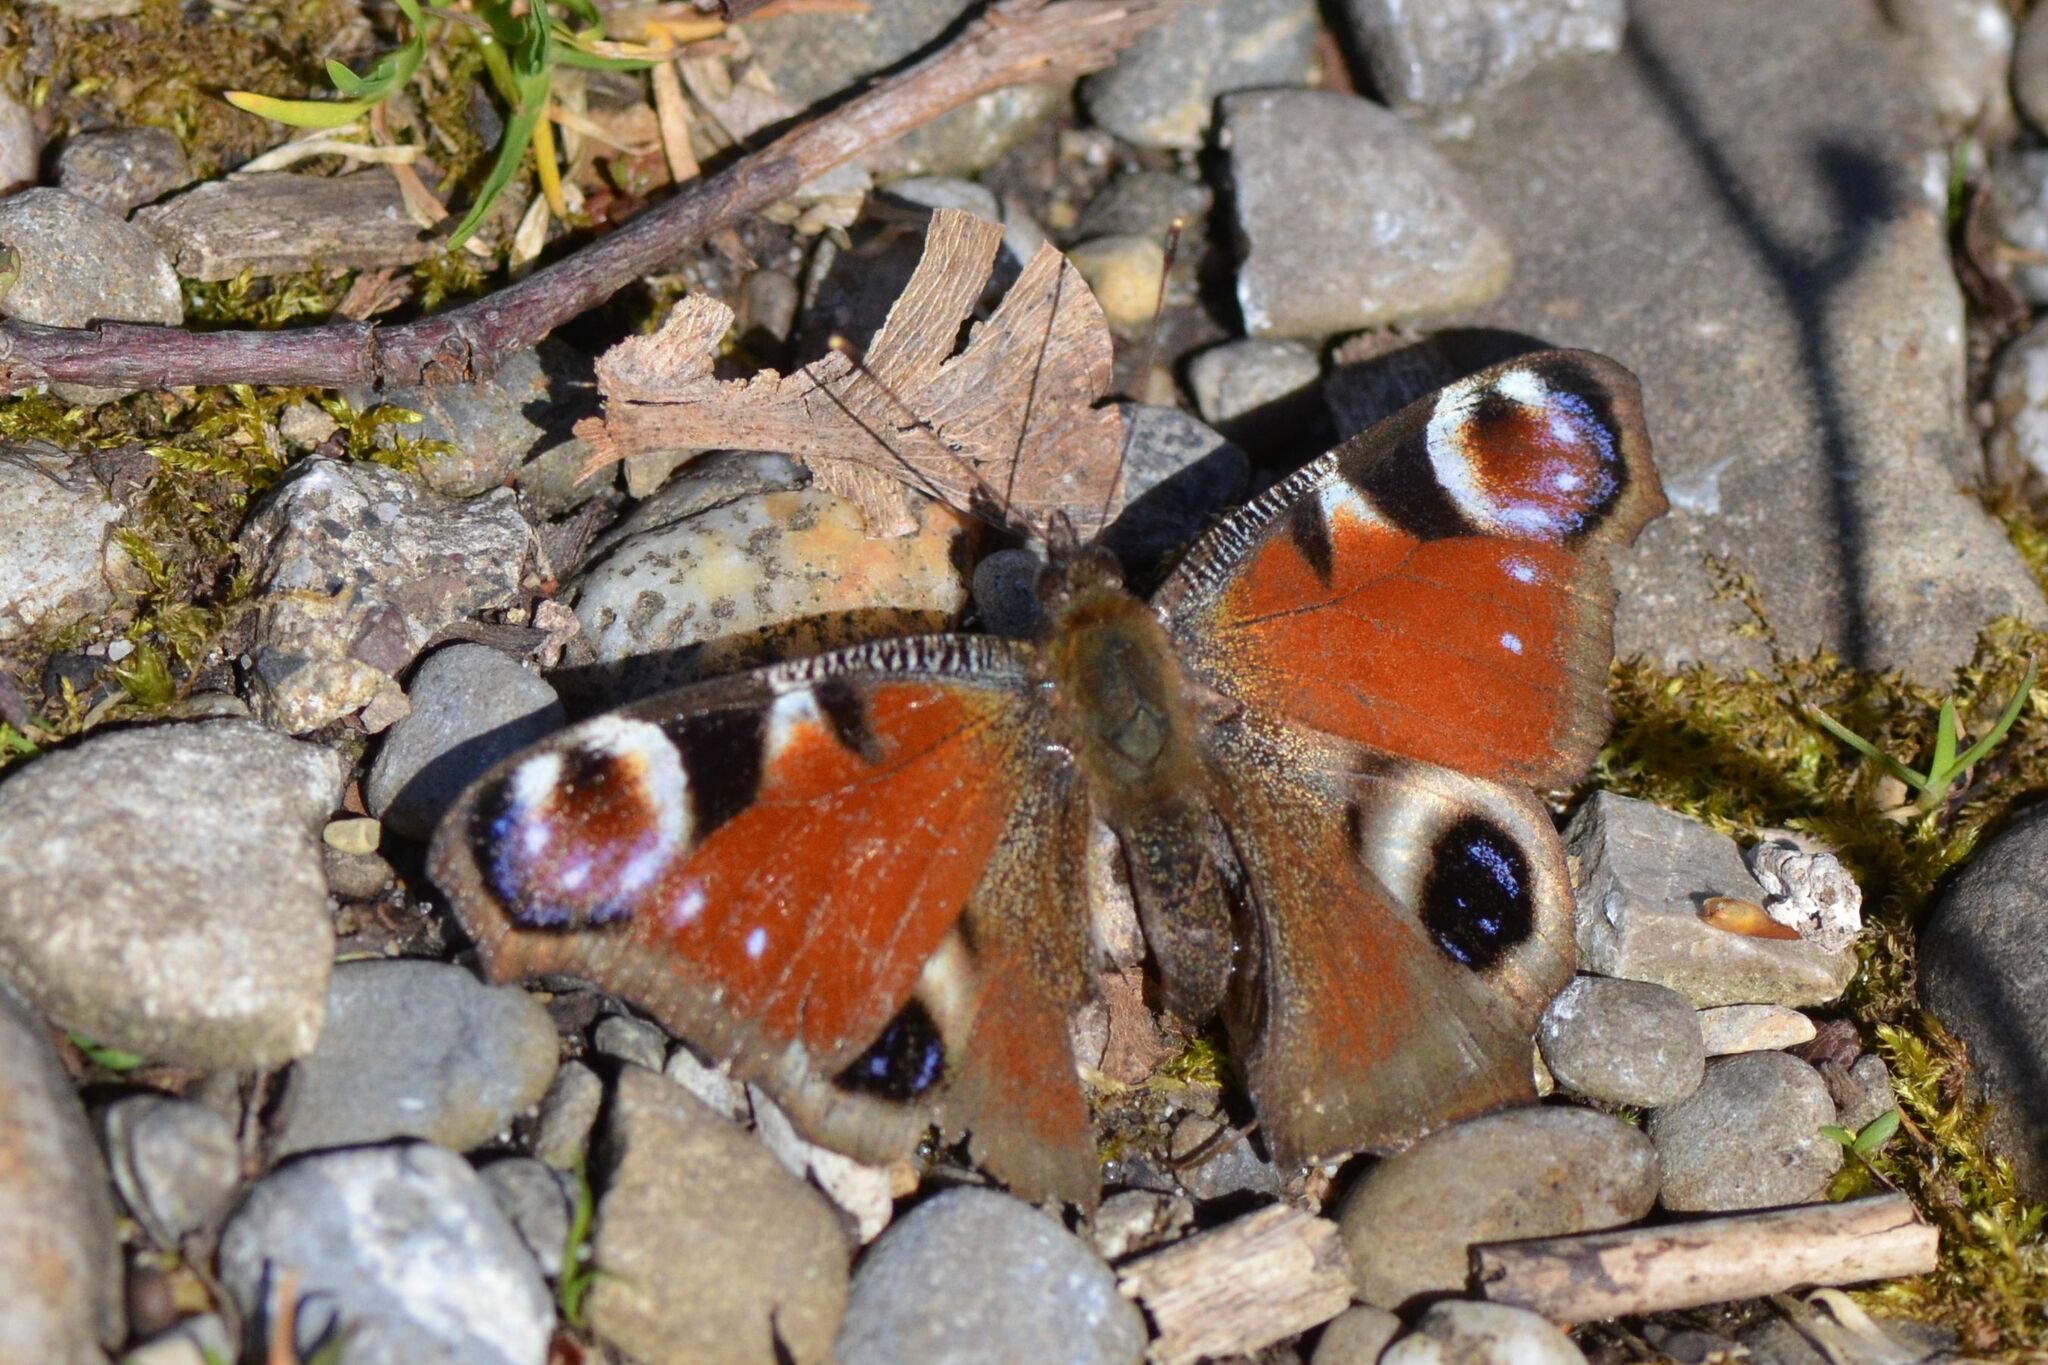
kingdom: Animalia
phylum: Arthropoda
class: Insecta
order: Lepidoptera
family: Nymphalidae
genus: Aglais
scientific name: Aglais io
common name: Peacock
